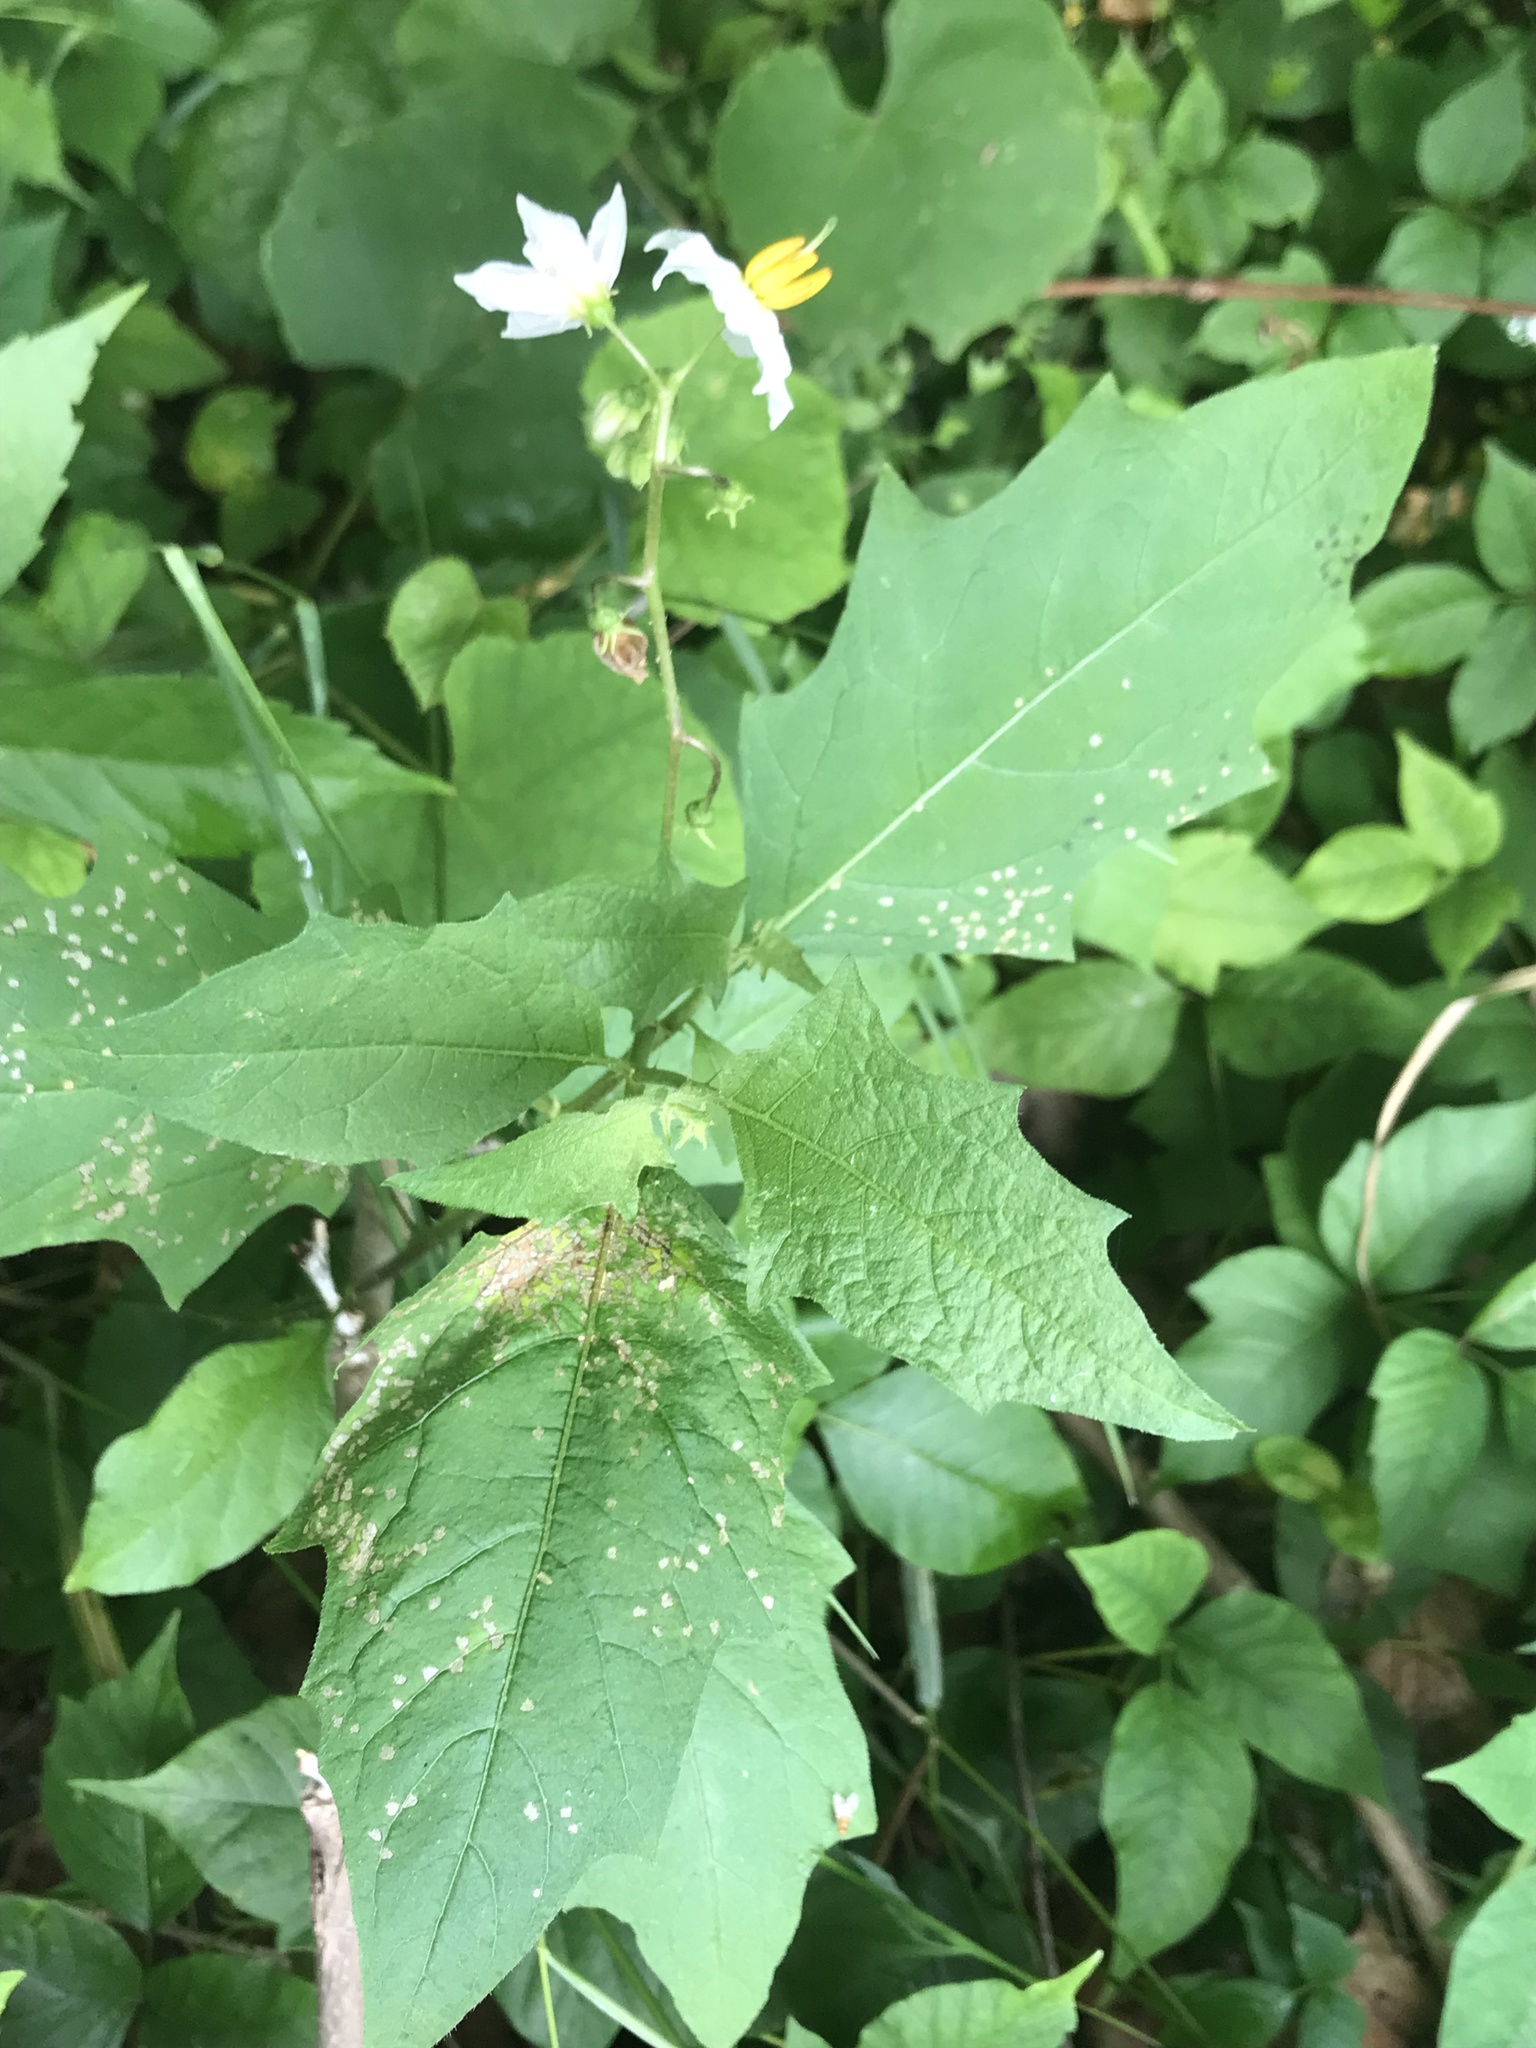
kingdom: Plantae
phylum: Tracheophyta
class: Magnoliopsida
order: Solanales
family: Solanaceae
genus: Solanum
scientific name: Solanum carolinense
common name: Horse-nettle
